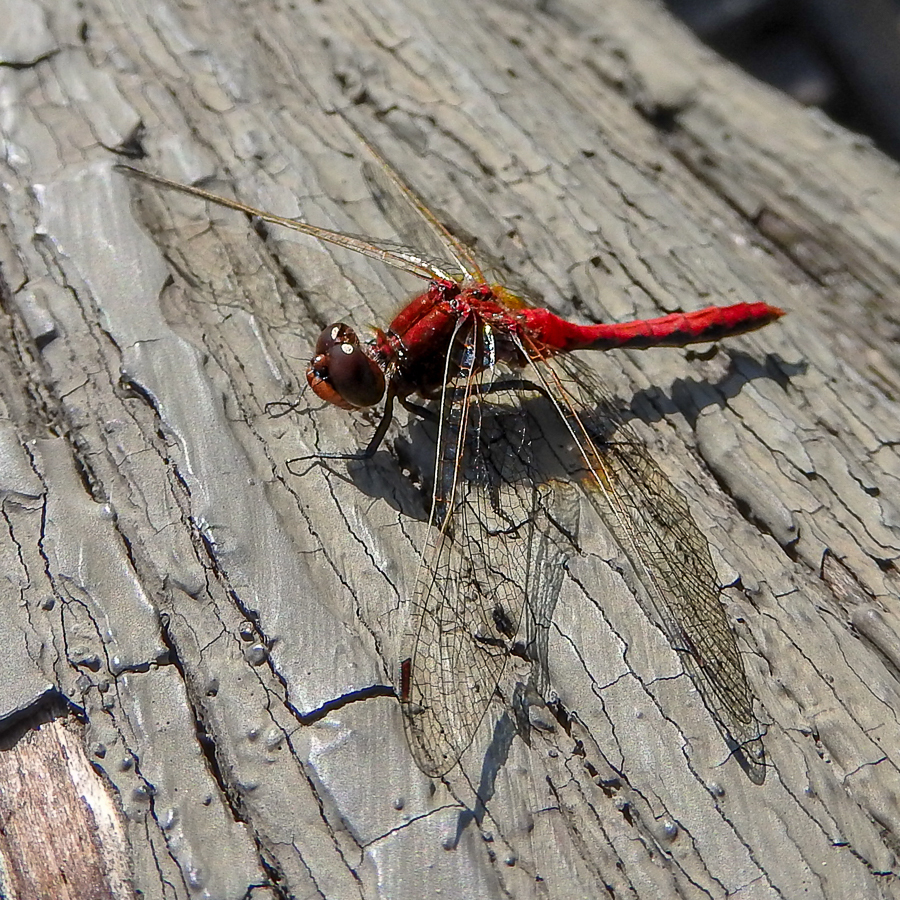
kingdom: Animalia
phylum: Arthropoda
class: Insecta
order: Odonata
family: Libellulidae
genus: Sympetrum
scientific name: Sympetrum internum
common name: Cherry-faced meadowhawk
